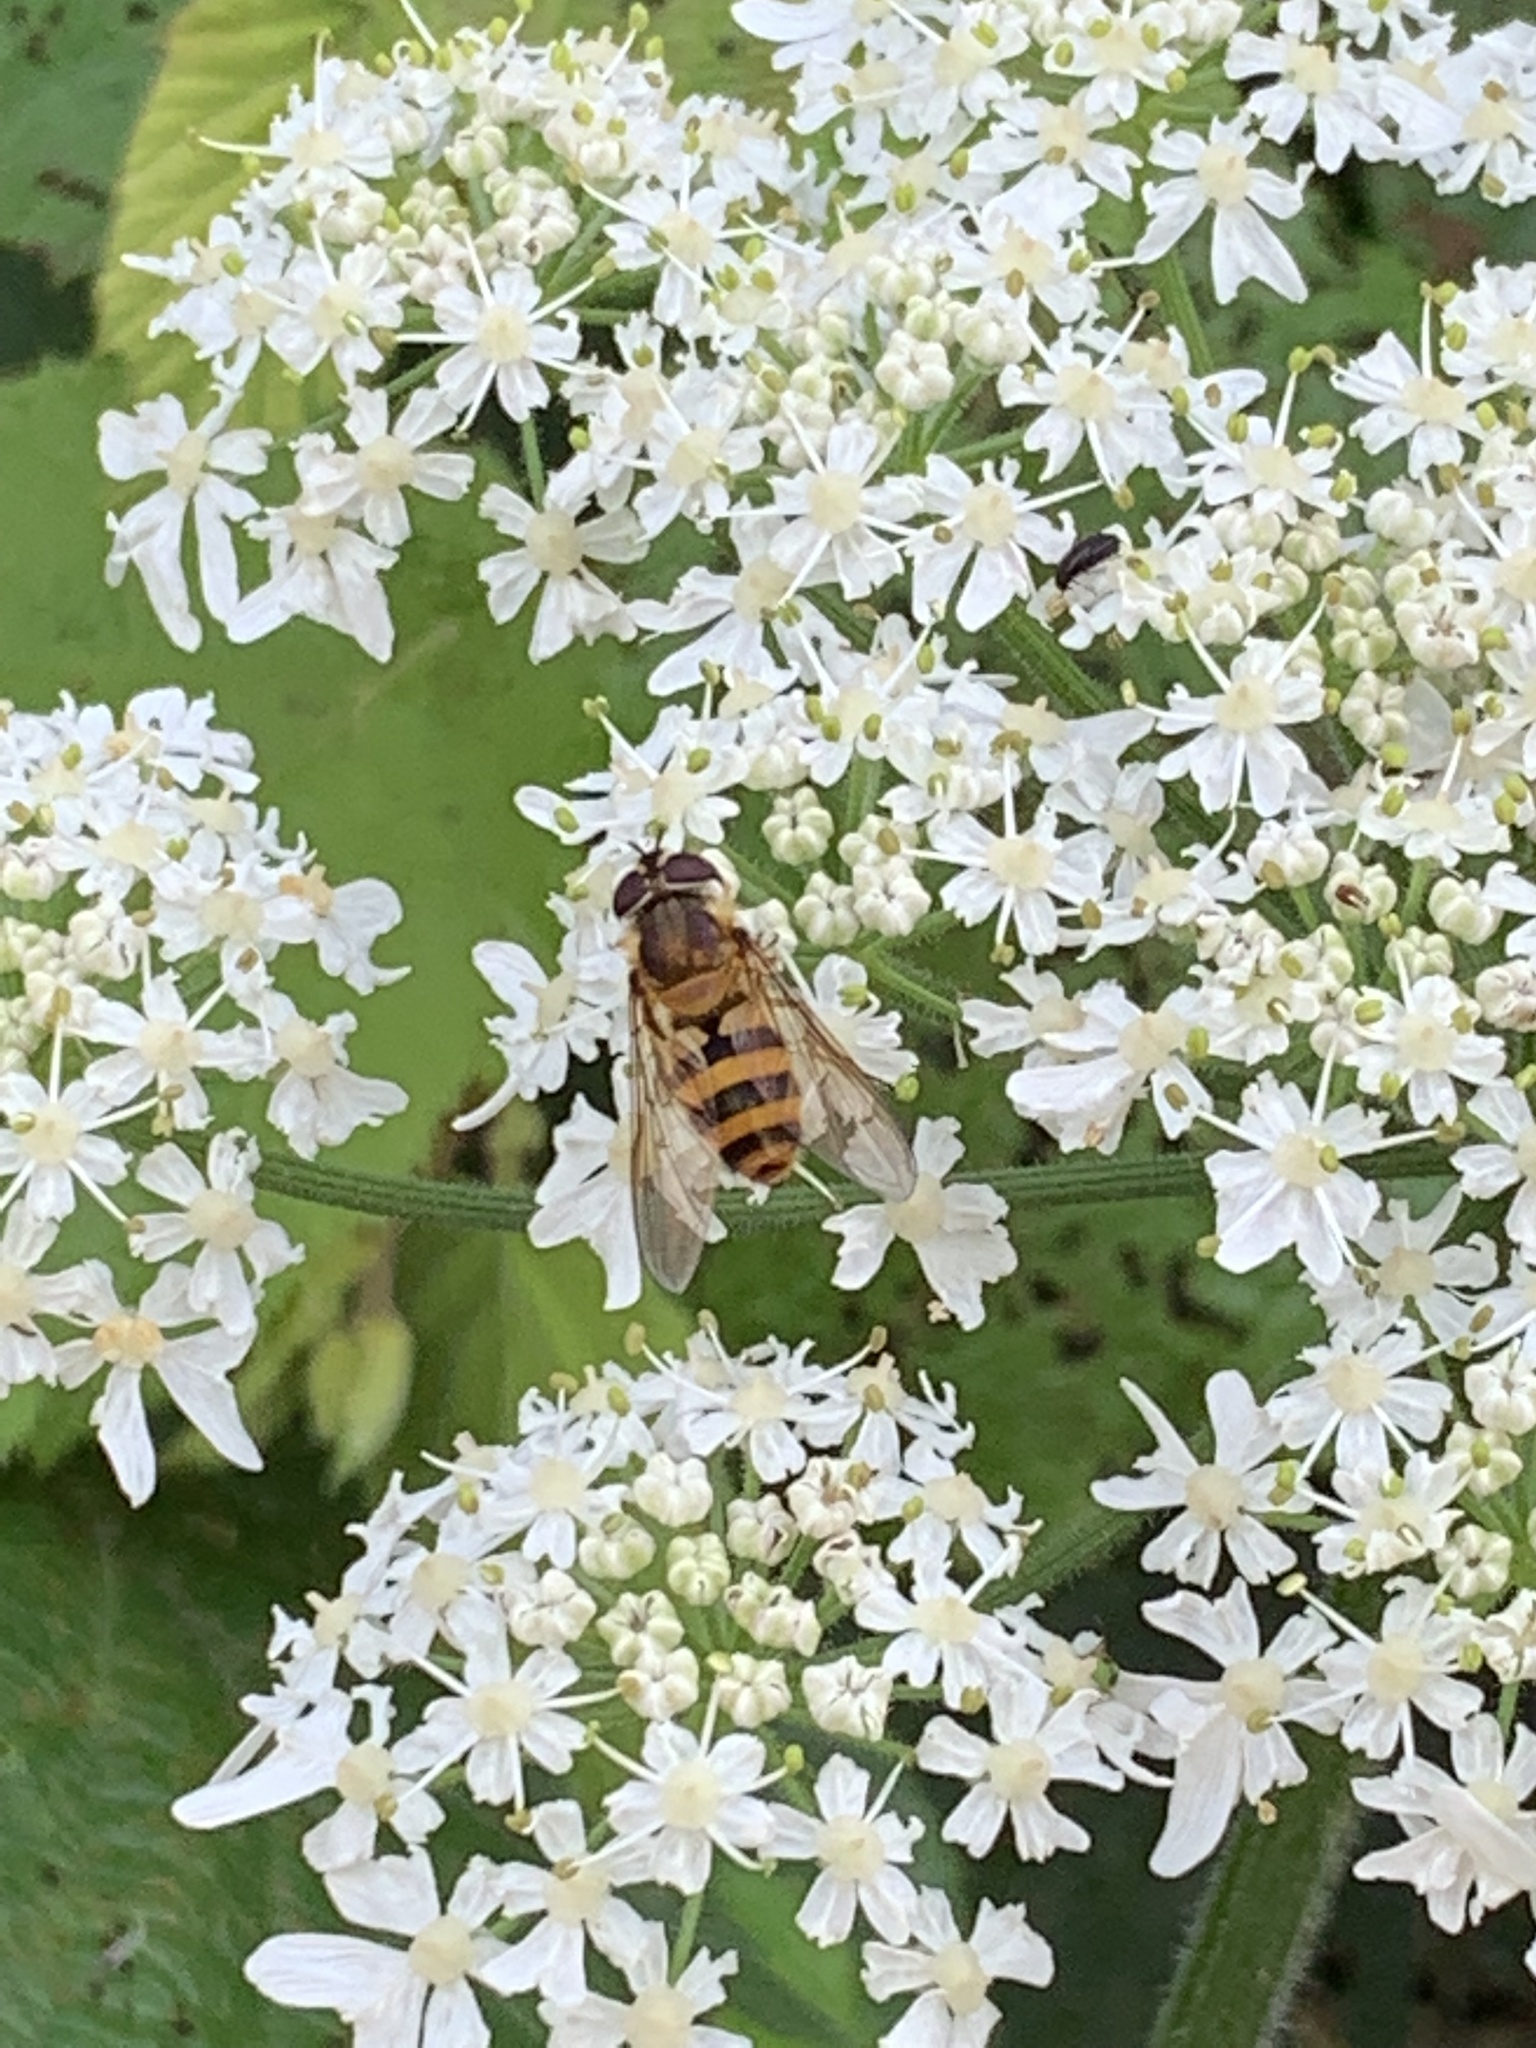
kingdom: Animalia
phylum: Arthropoda
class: Insecta
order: Diptera
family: Syrphidae
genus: Epistrophe
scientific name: Epistrophe grossulariae
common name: Black-horned smoothtail
